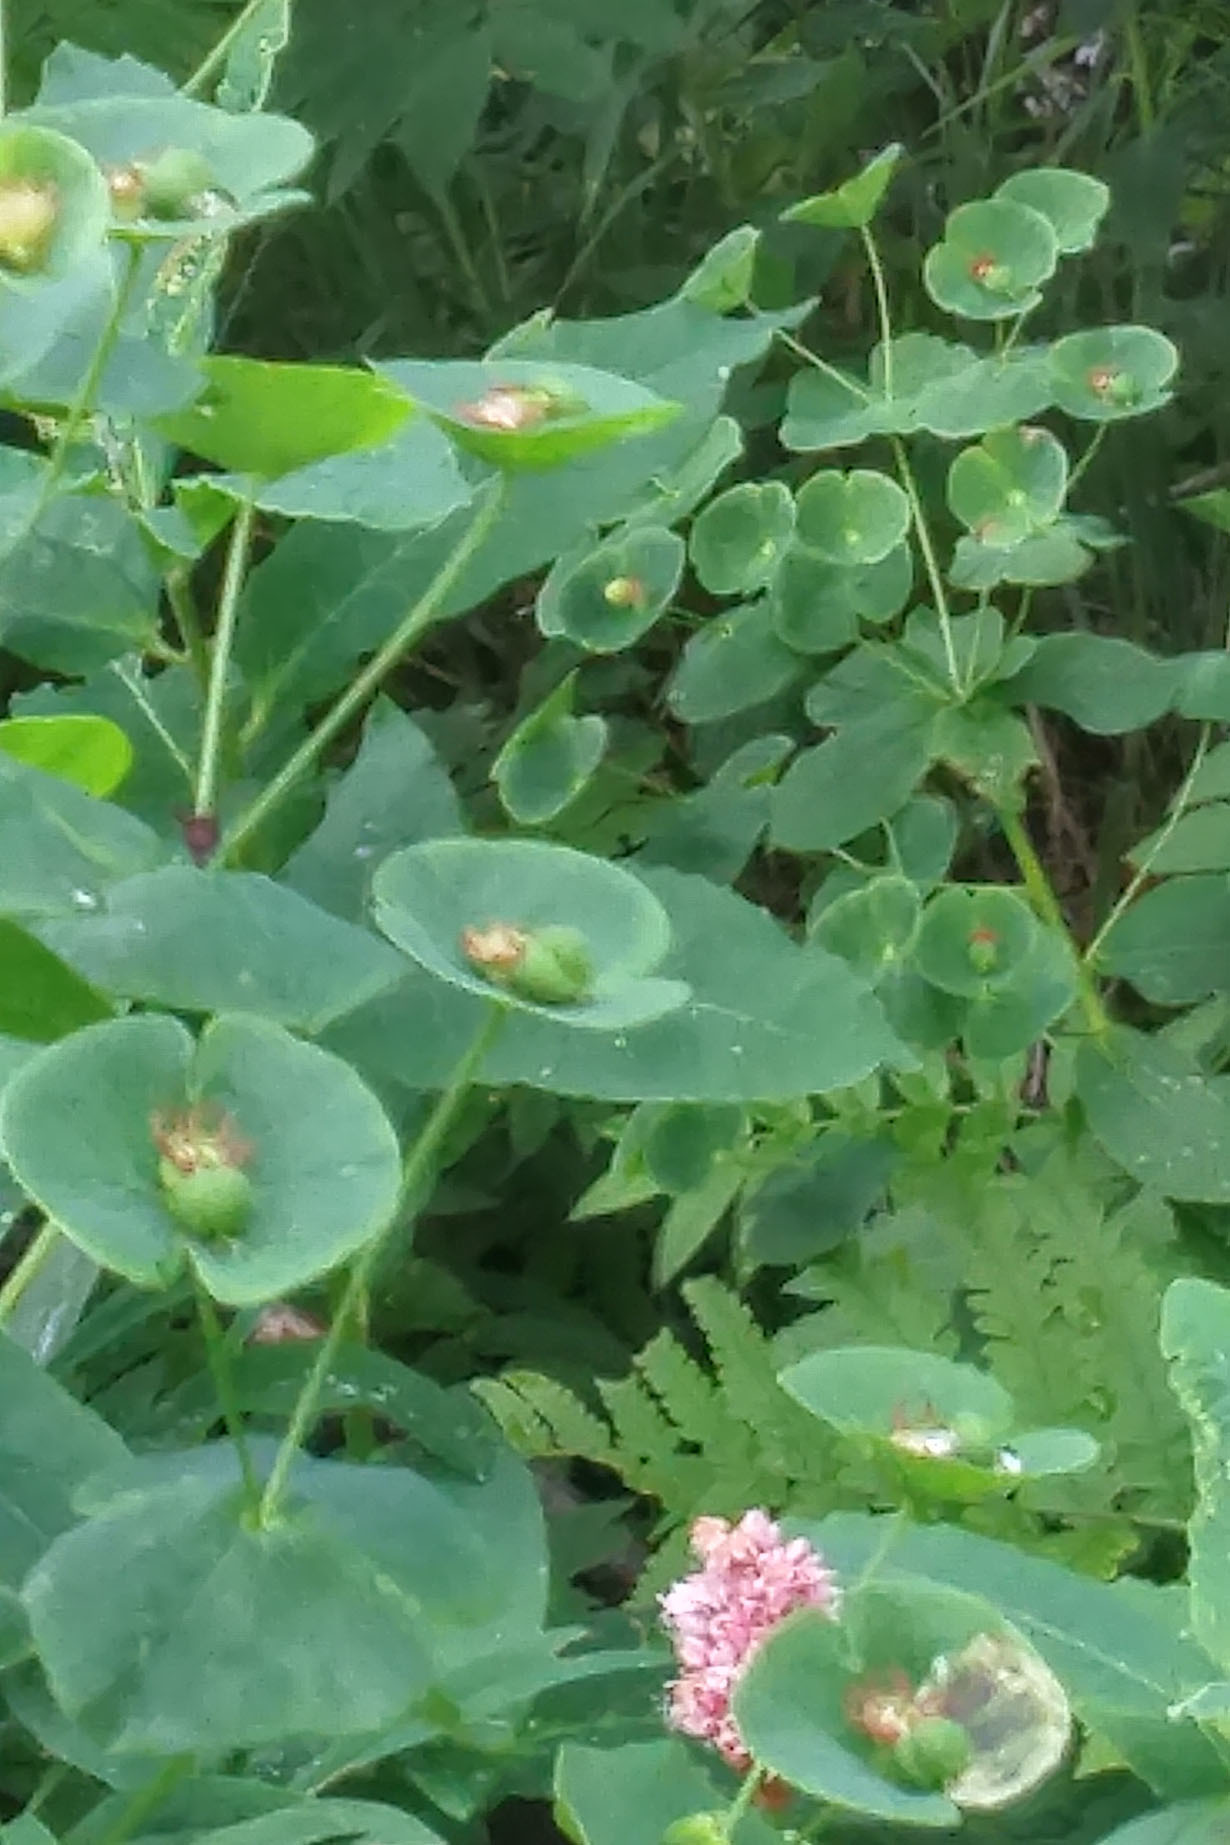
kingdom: Plantae
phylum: Tracheophyta
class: Magnoliopsida
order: Malpighiales
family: Euphorbiaceae
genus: Euphorbia
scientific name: Euphorbia macroceras
